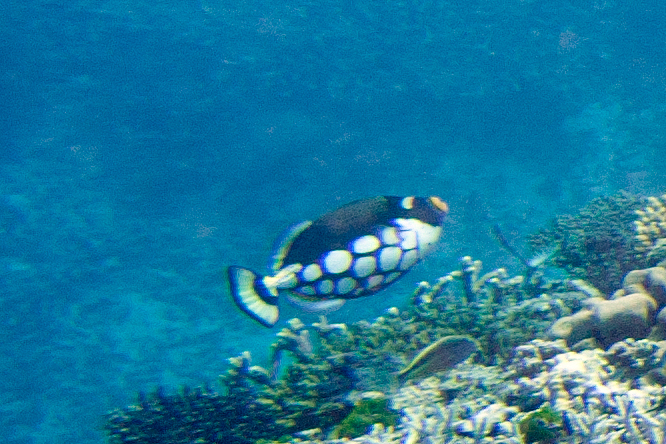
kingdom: Animalia
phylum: Chordata
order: Tetraodontiformes
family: Balistidae
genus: Balistoides
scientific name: Balistoides conspicillum
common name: Clown triggerfish
